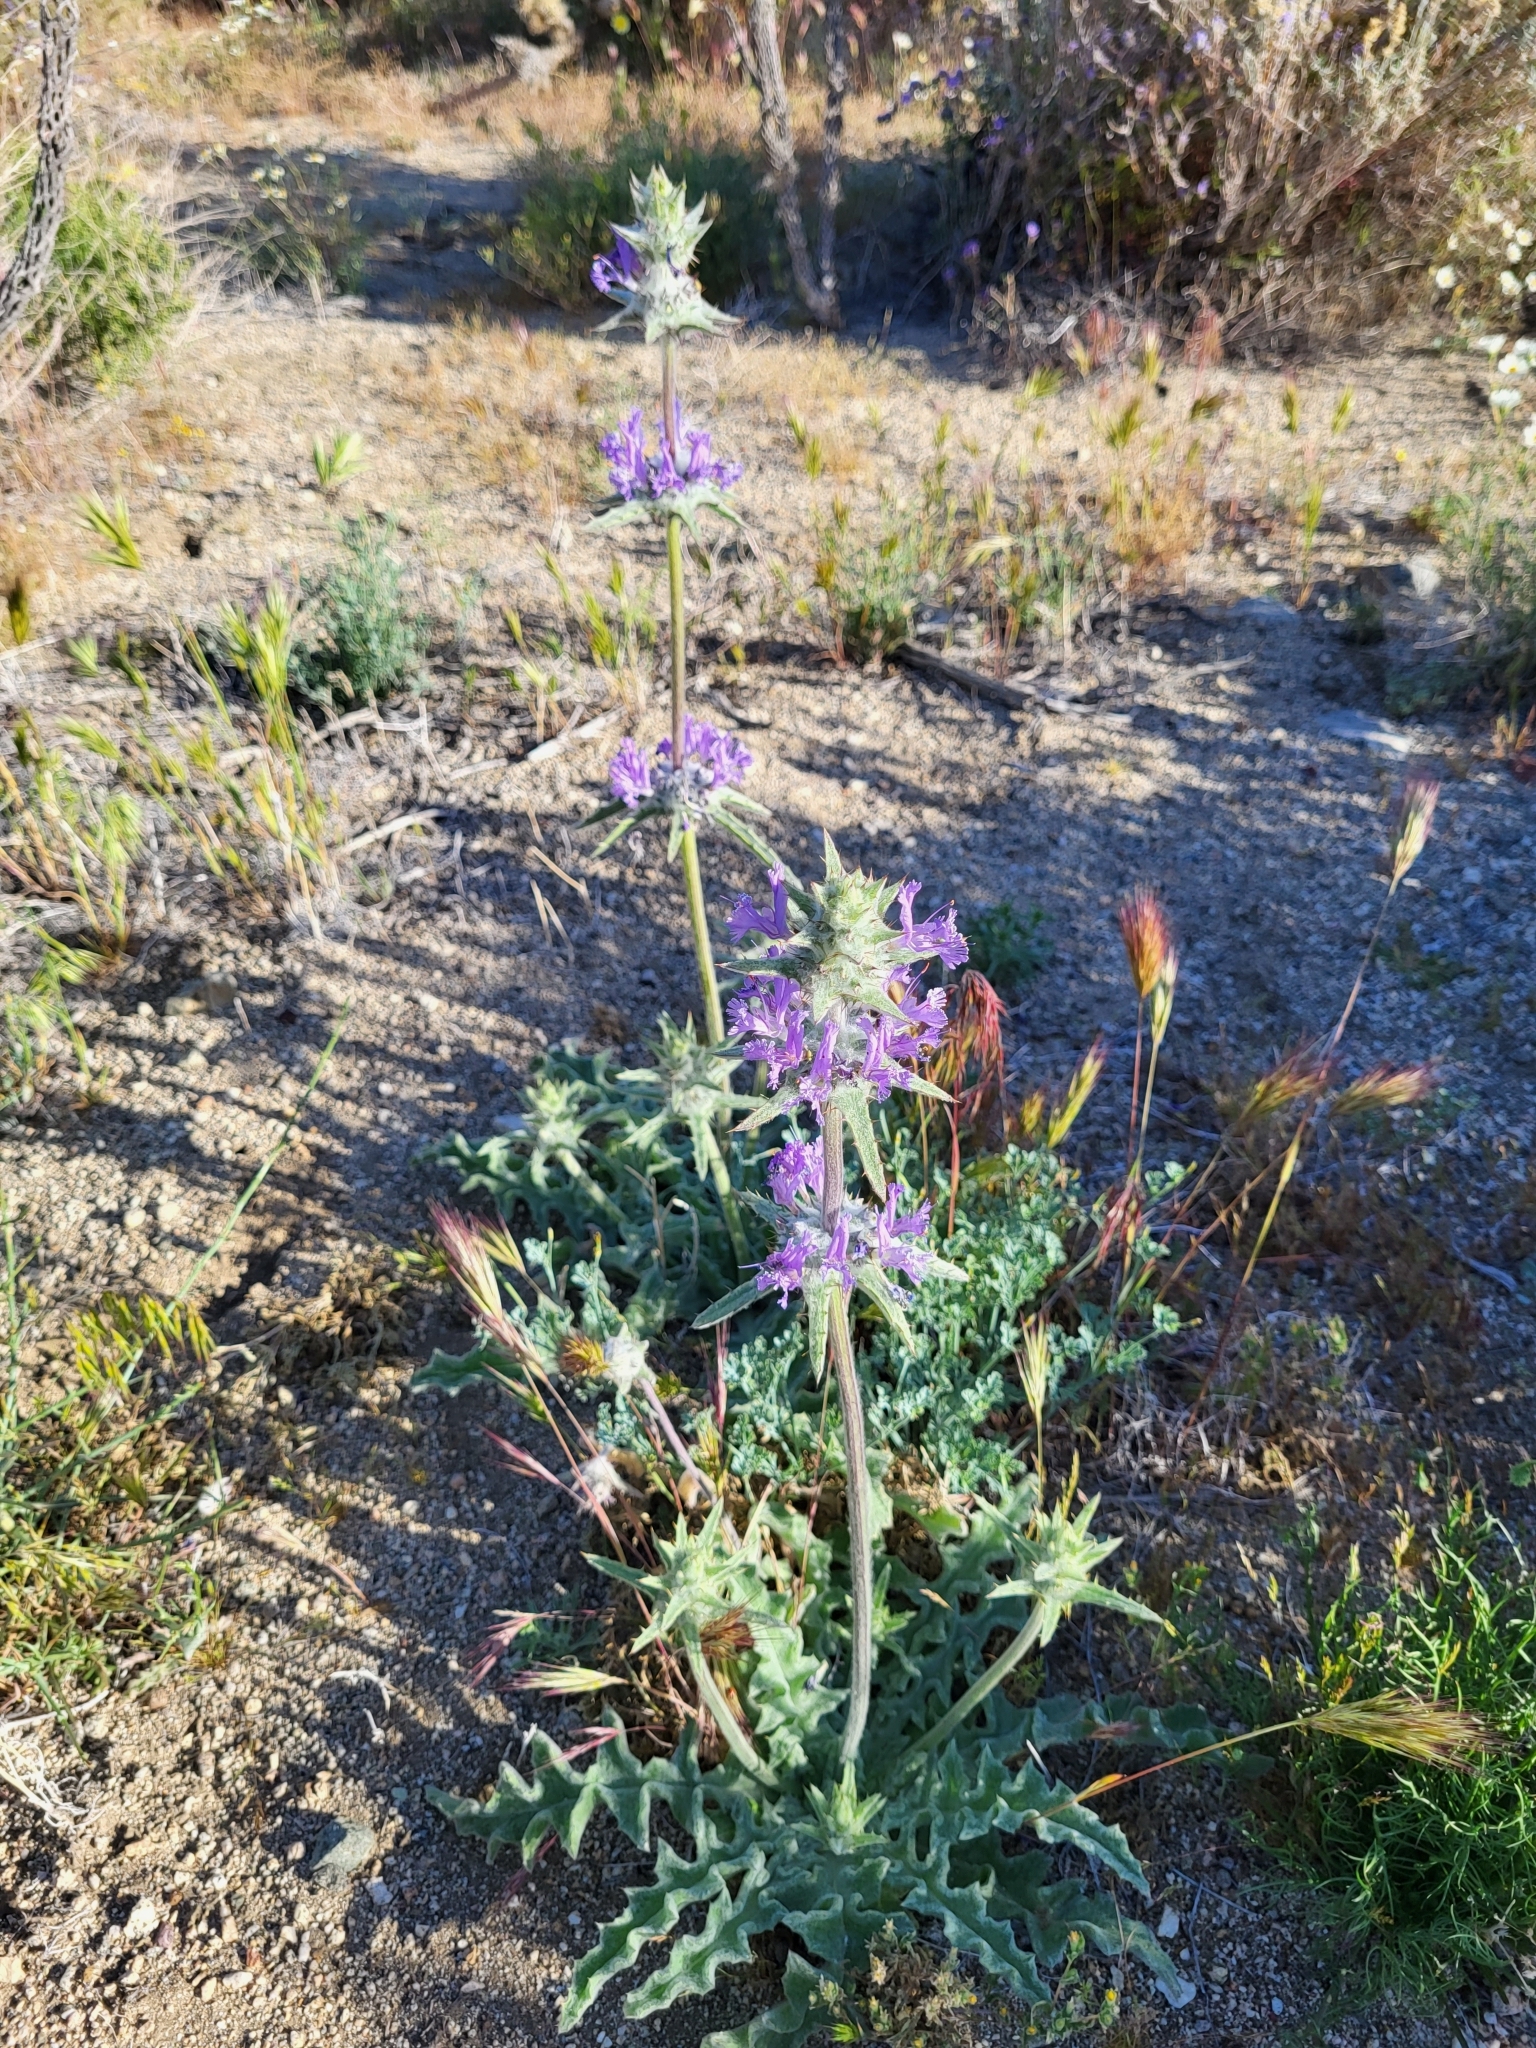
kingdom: Plantae
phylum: Tracheophyta
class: Magnoliopsida
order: Lamiales
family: Lamiaceae
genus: Salvia
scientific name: Salvia carduacea
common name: Thistle sage
